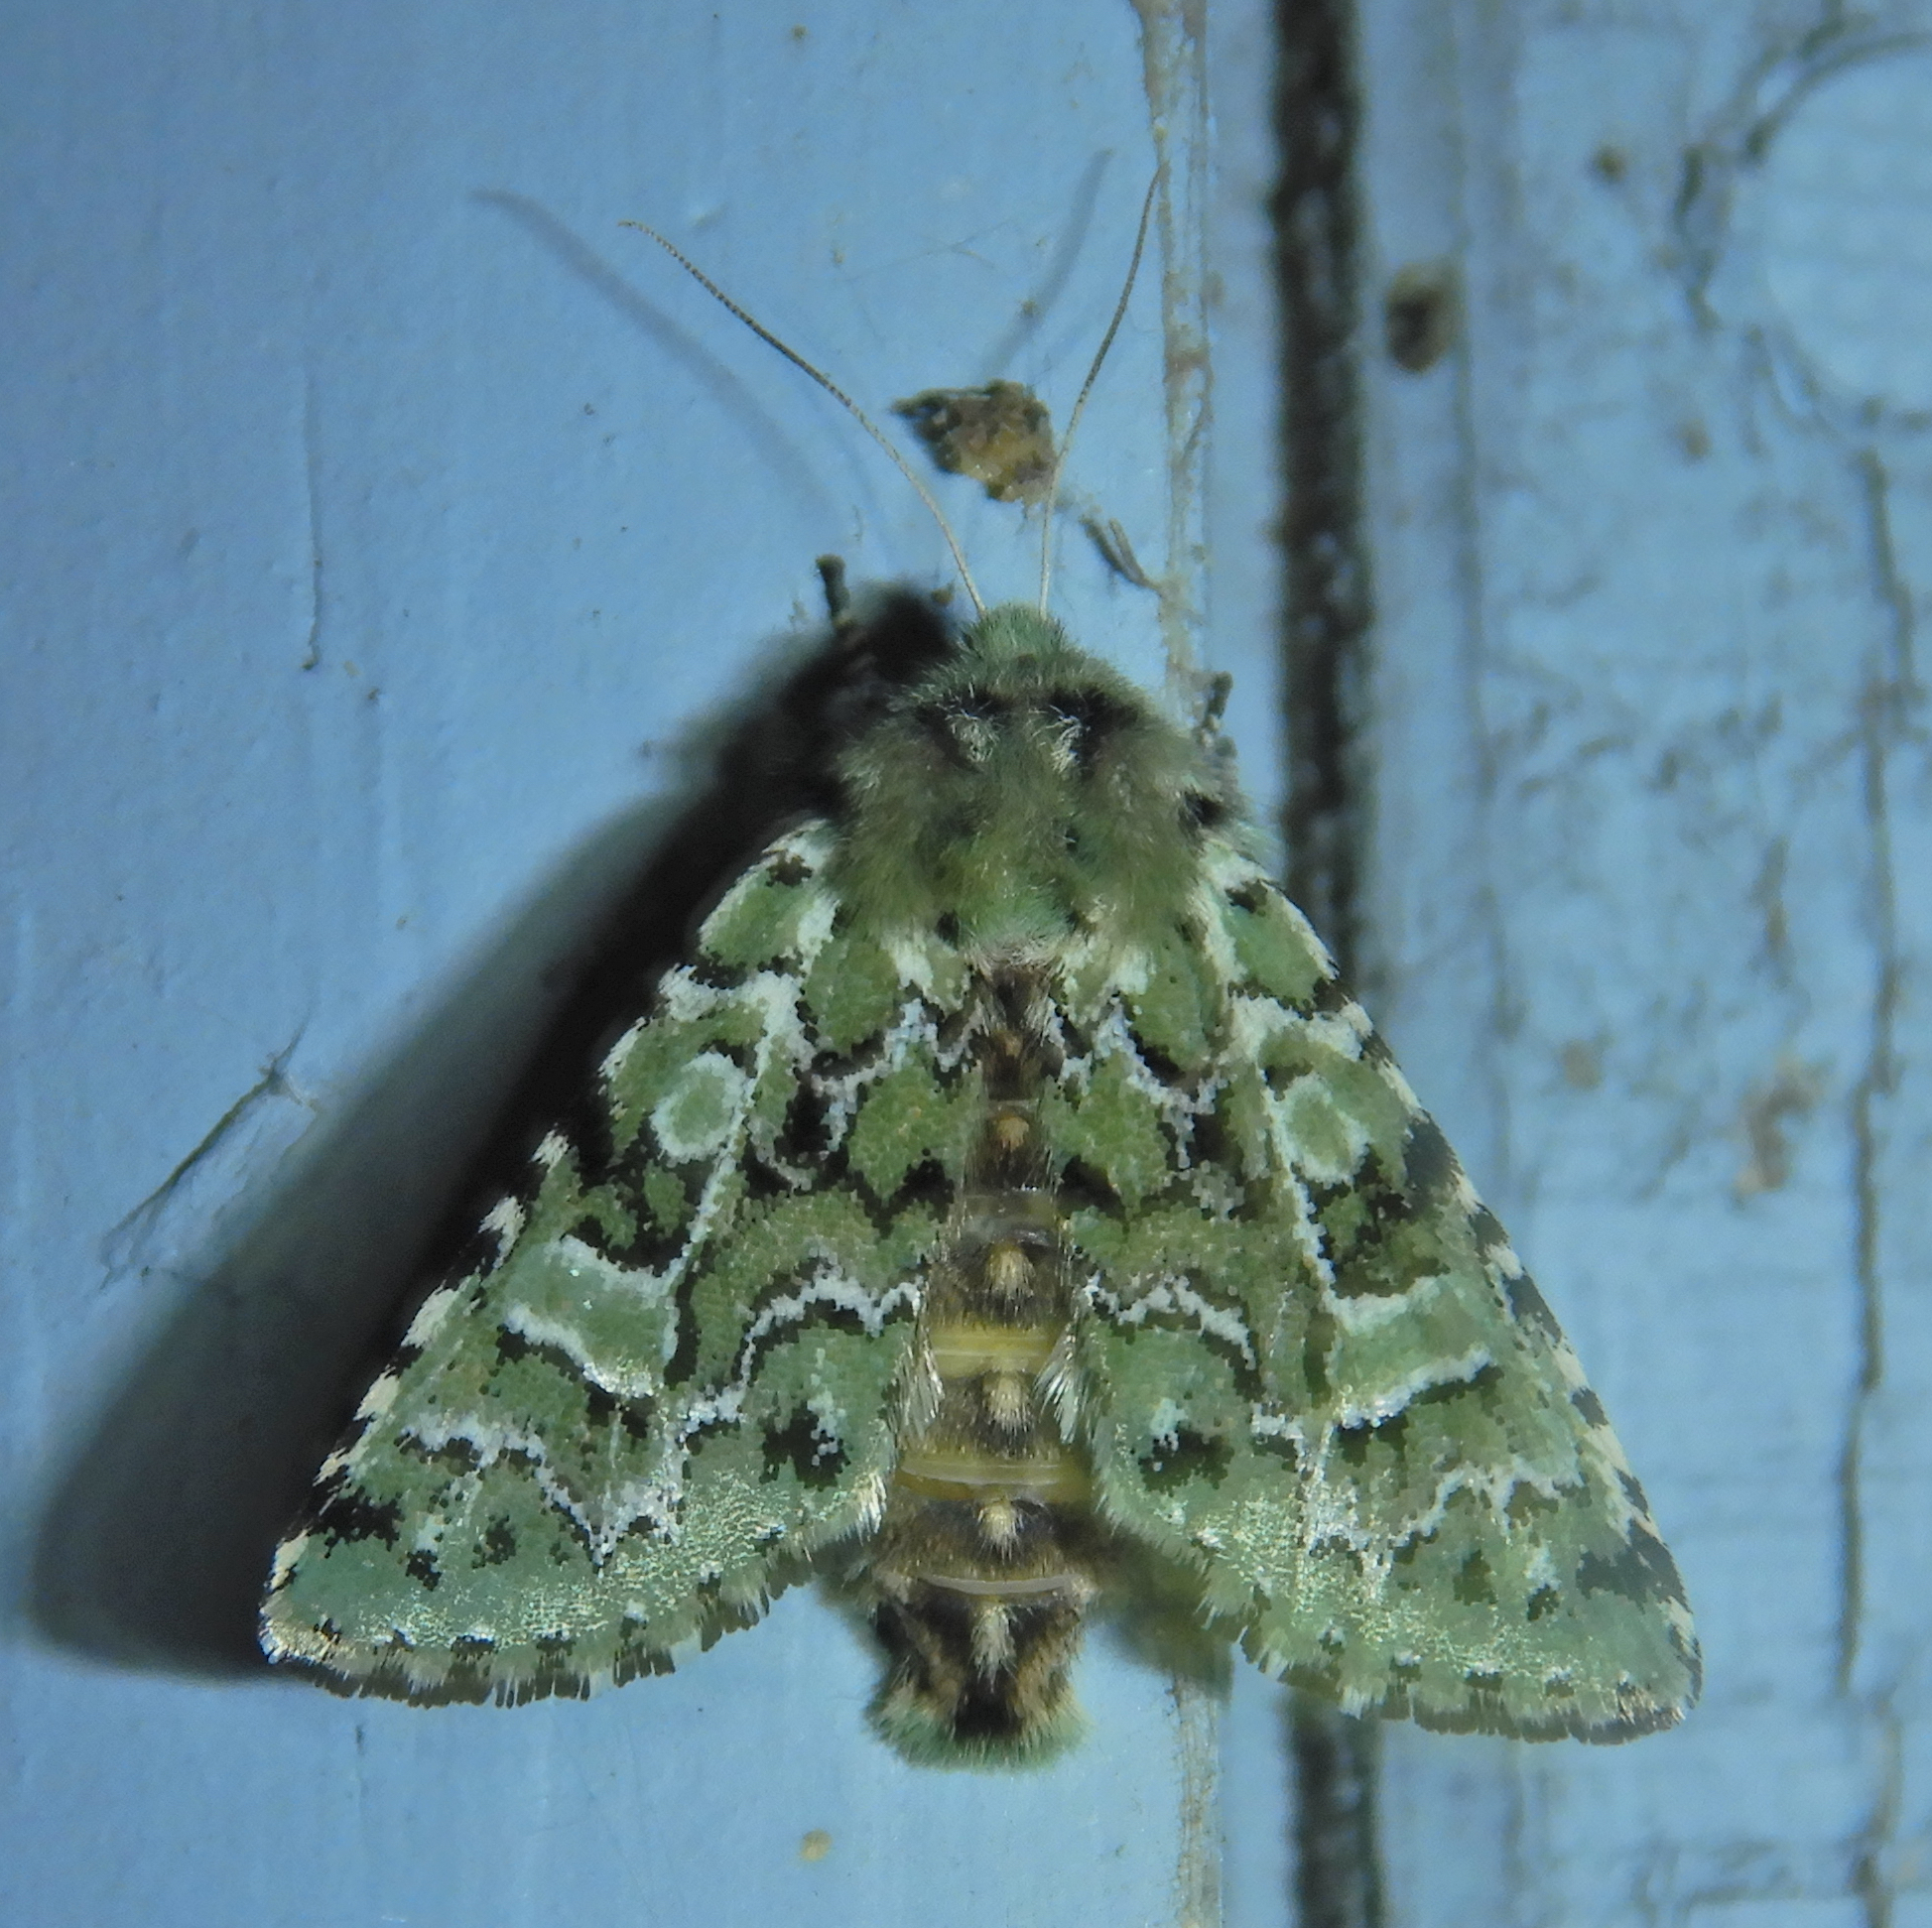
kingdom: Animalia
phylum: Arthropoda
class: Insecta
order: Lepidoptera
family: Noctuidae
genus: Feralia
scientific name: Feralia jocosa
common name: Joker
